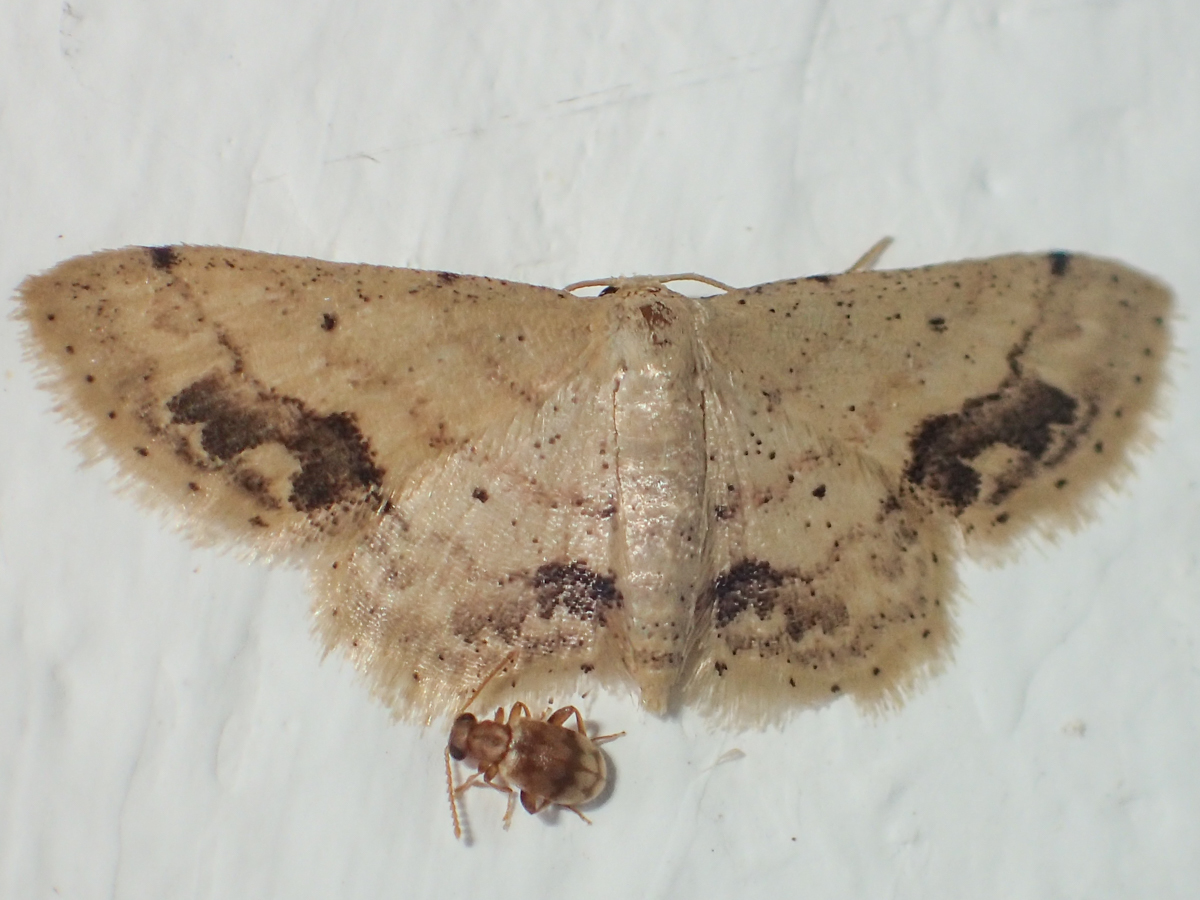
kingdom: Animalia
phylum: Arthropoda
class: Insecta
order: Lepidoptera
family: Geometridae
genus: Idaea
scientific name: Idaea chotaria
